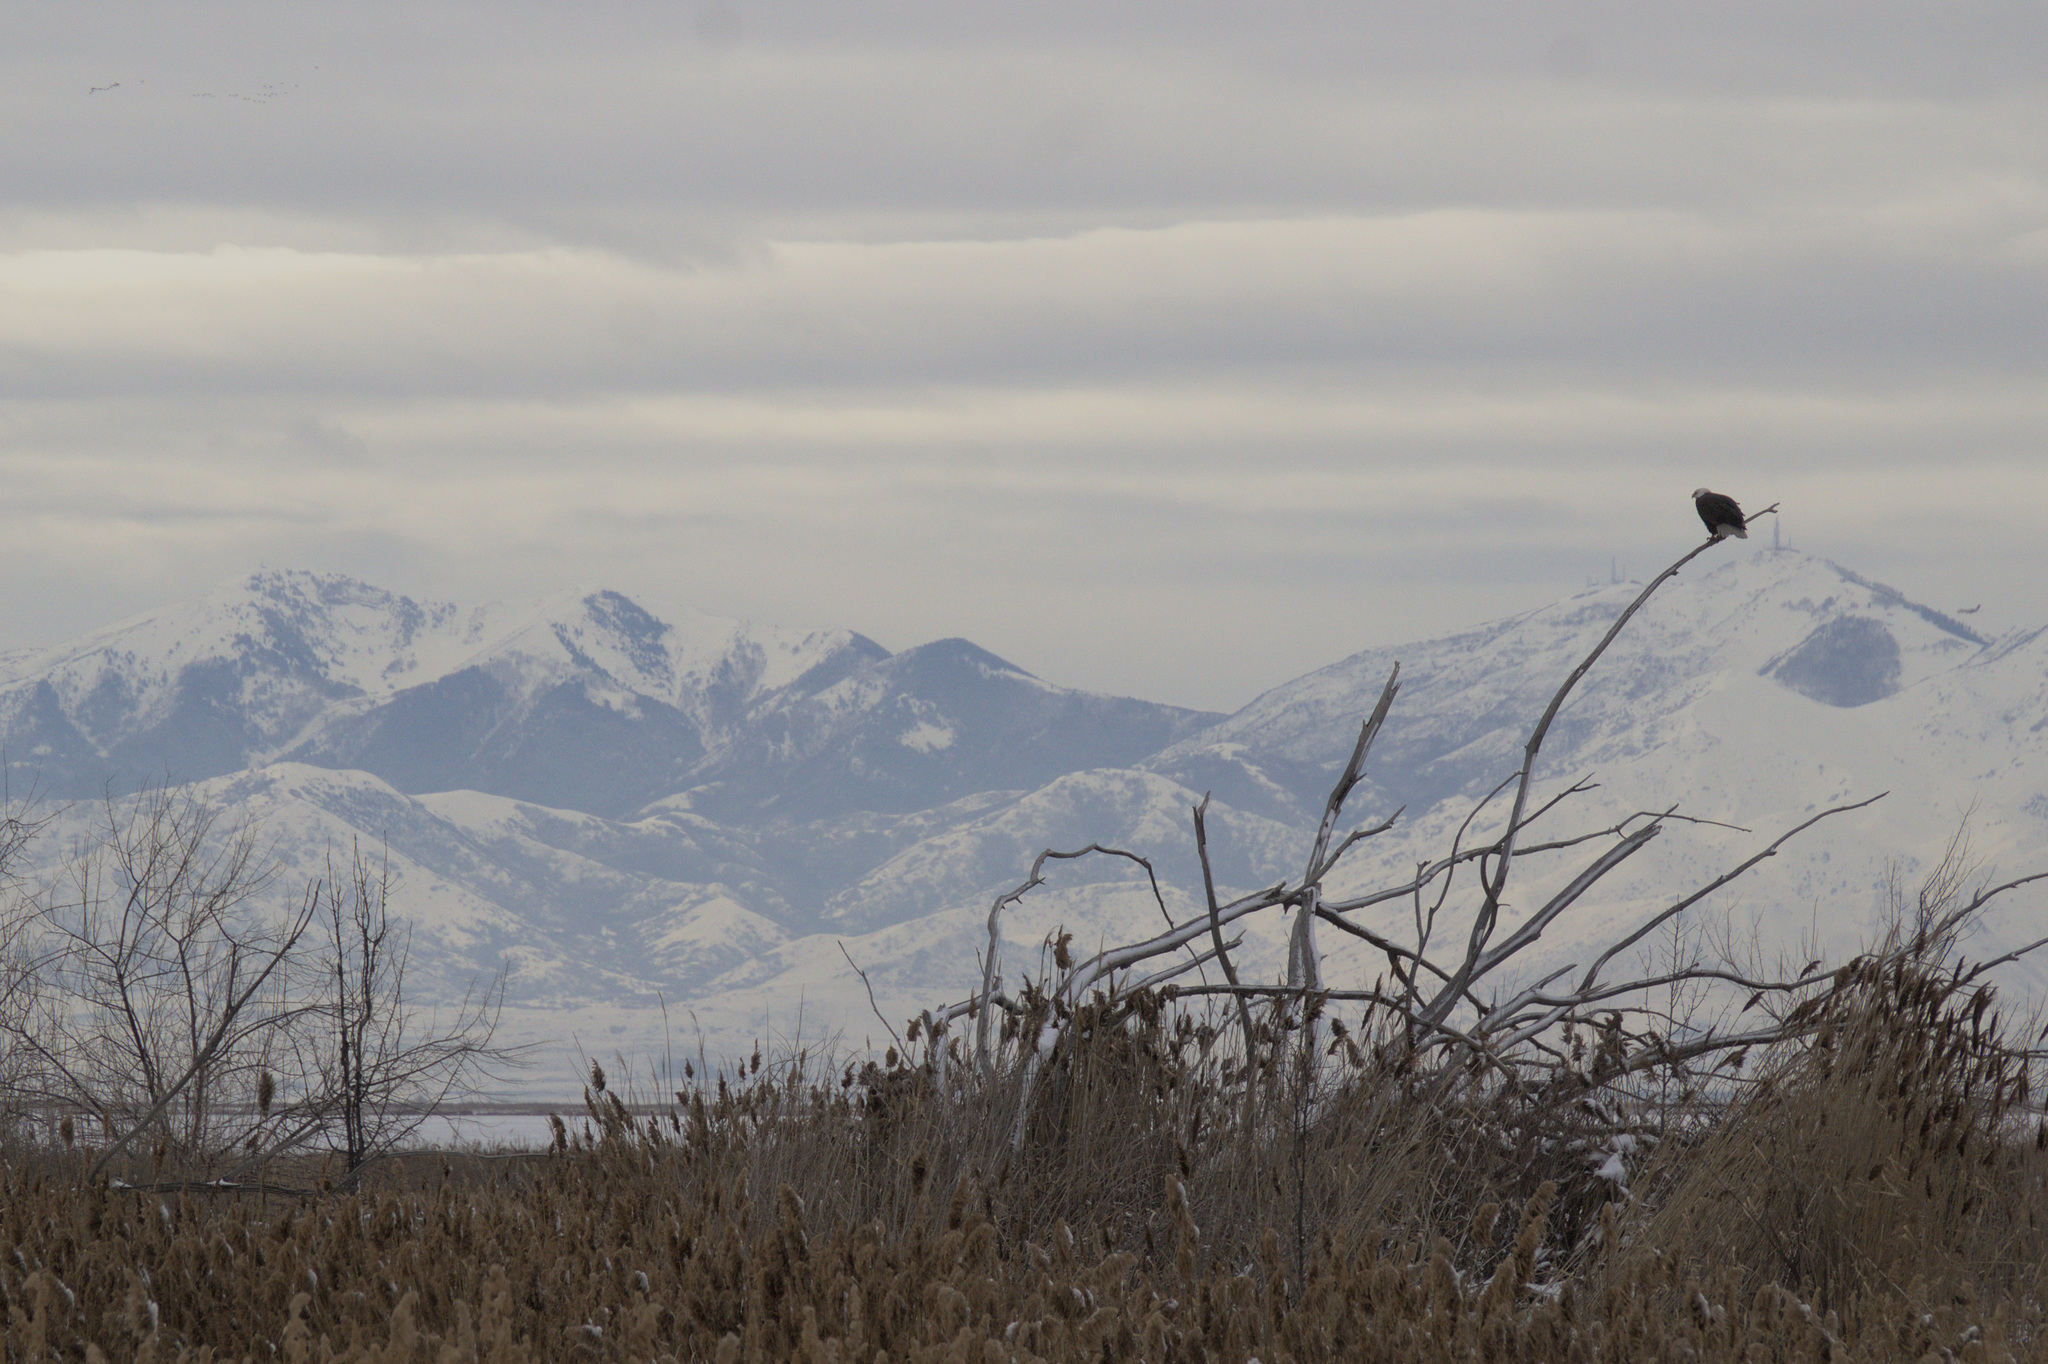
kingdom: Animalia
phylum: Chordata
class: Aves
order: Accipitriformes
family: Accipitridae
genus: Haliaeetus
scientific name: Haliaeetus leucocephalus
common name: Bald eagle
